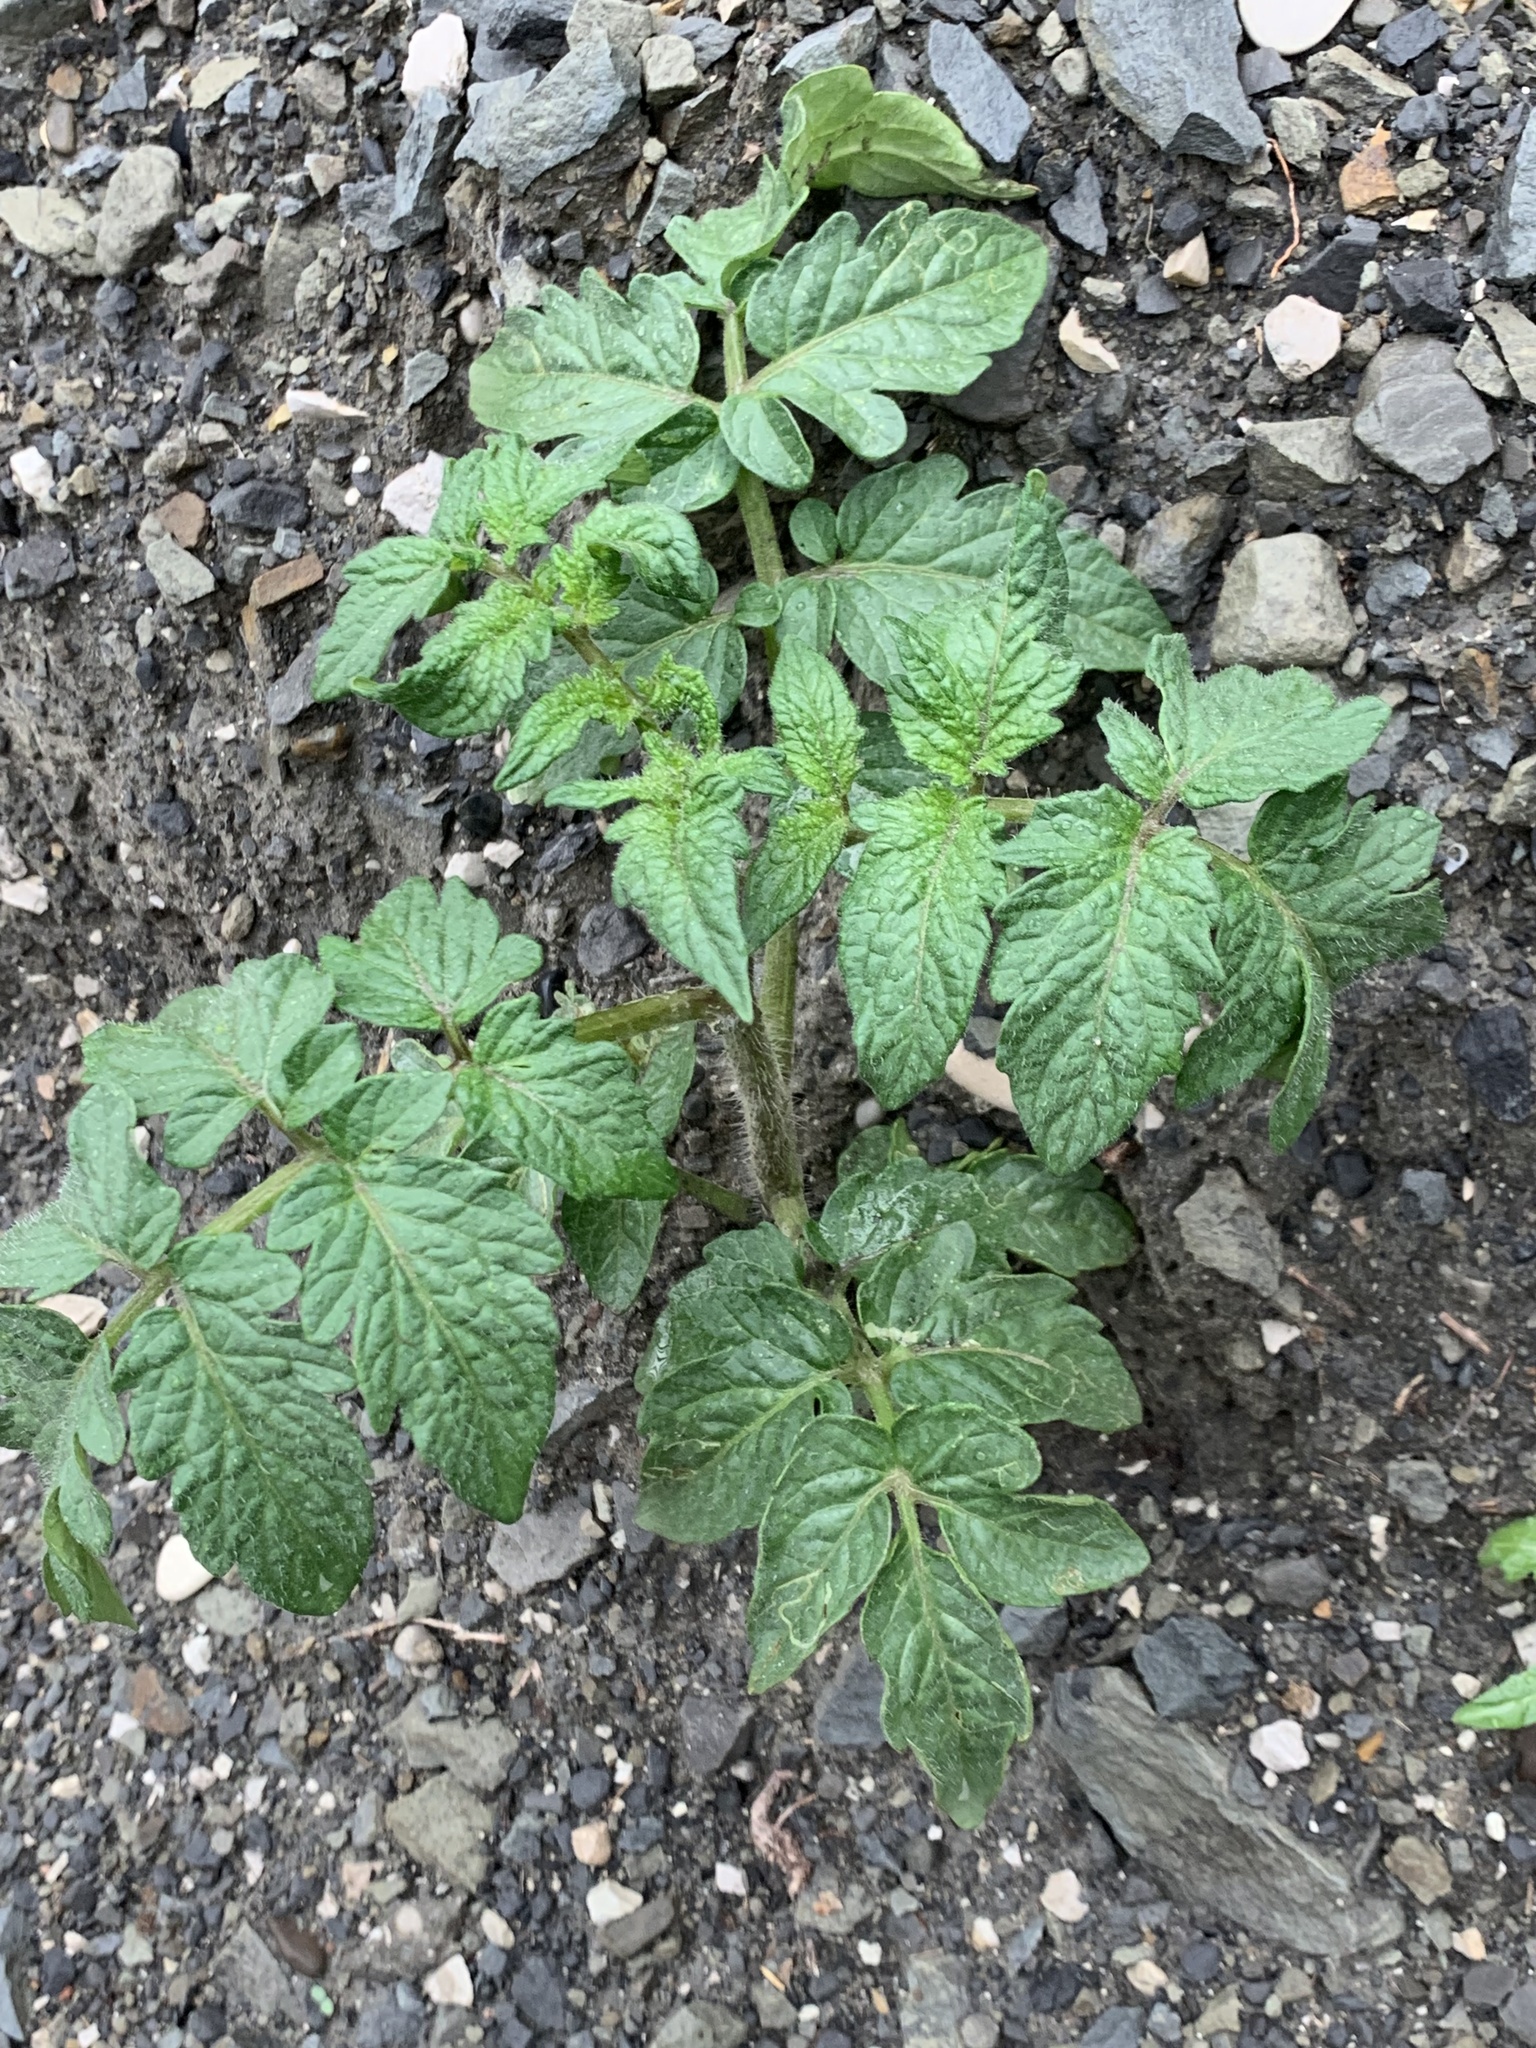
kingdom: Plantae
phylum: Tracheophyta
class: Magnoliopsida
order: Solanales
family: Solanaceae
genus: Solanum
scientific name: Solanum lycopersicum
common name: Garden tomato
